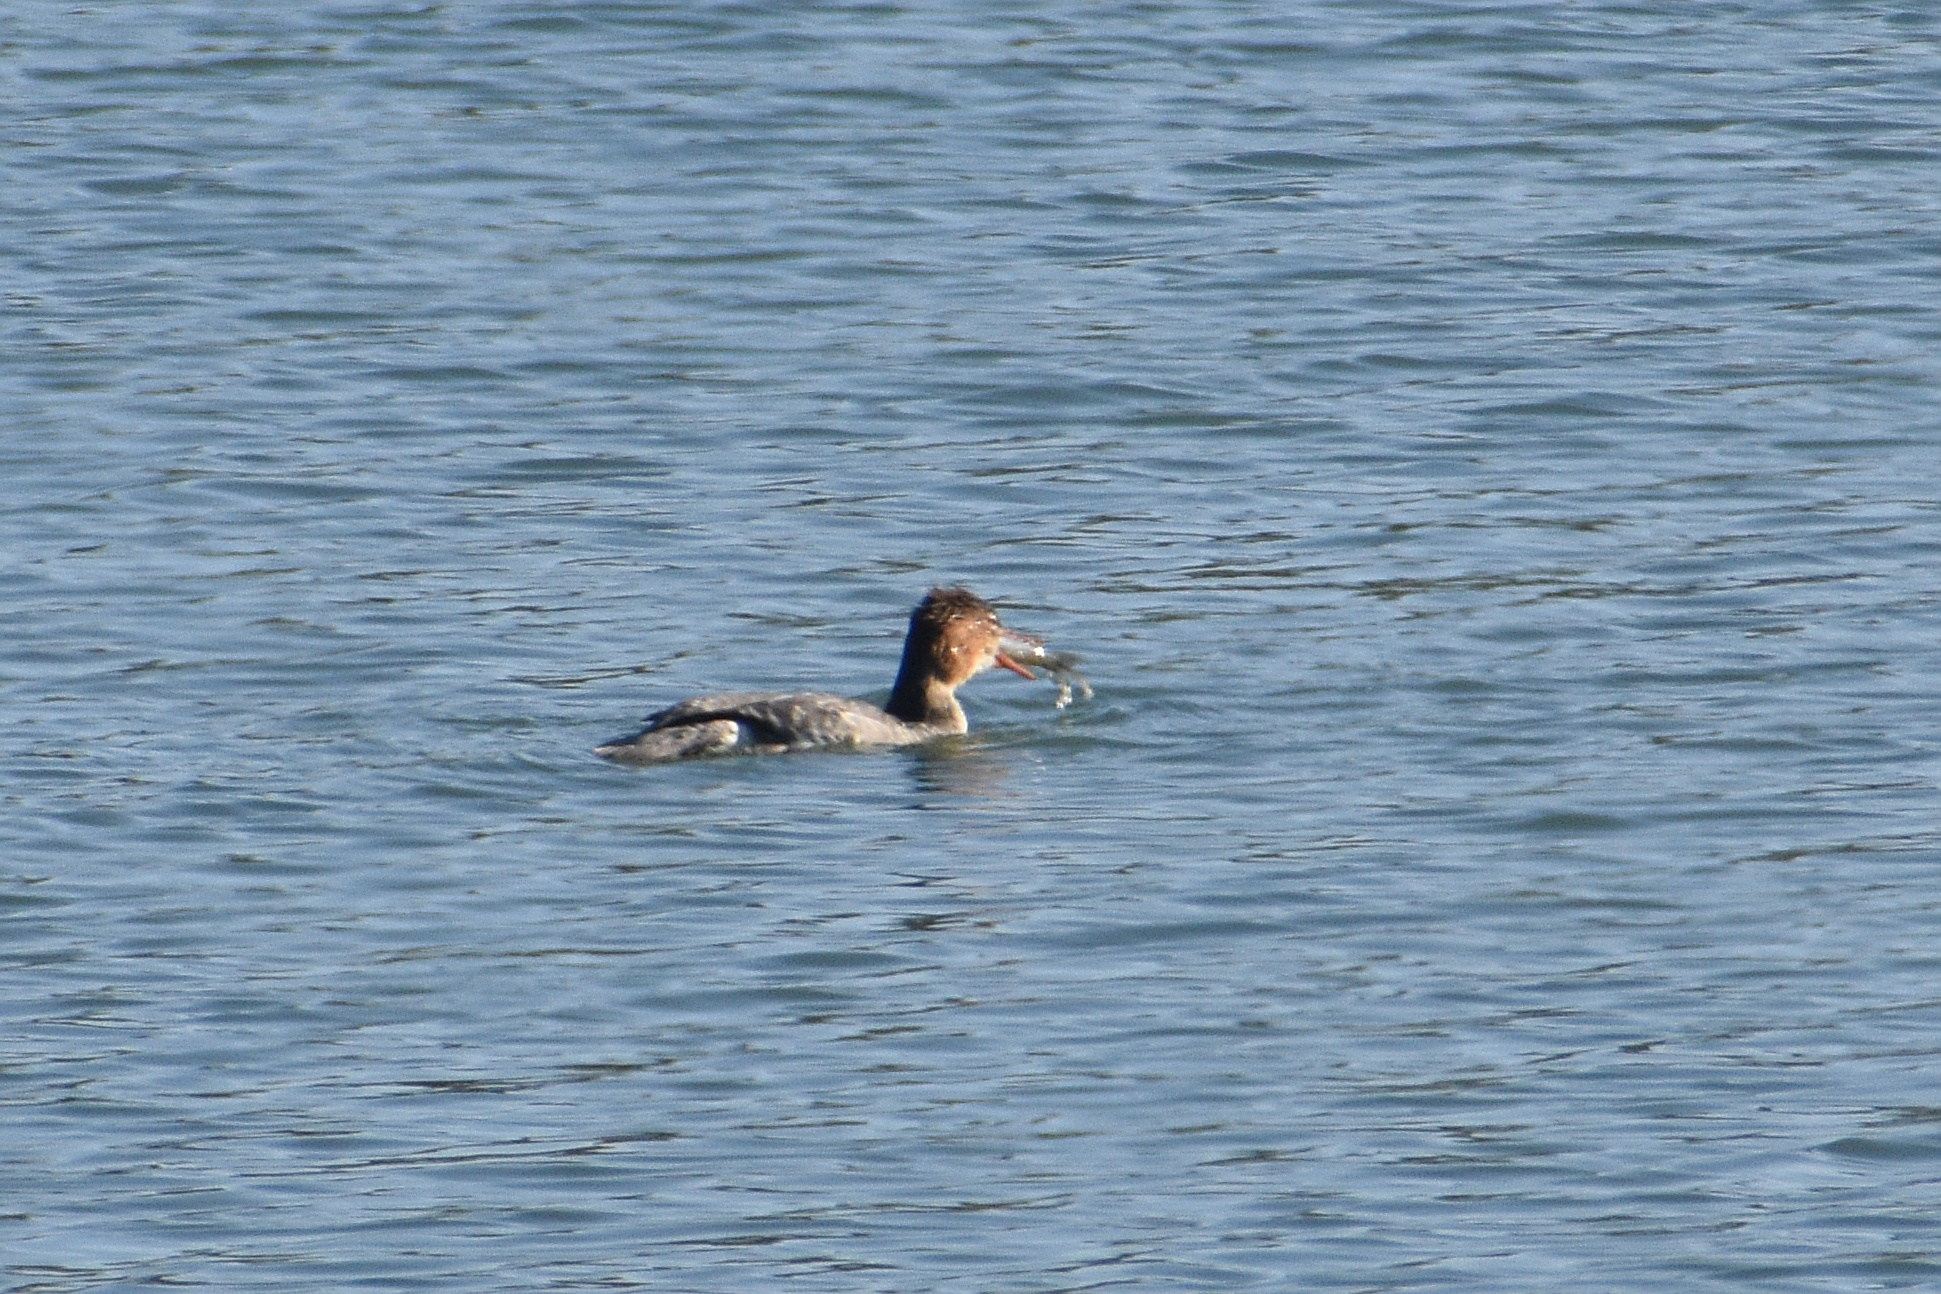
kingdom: Animalia
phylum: Chordata
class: Aves
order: Anseriformes
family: Anatidae
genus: Mergus
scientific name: Mergus serrator
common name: Red-breasted merganser
